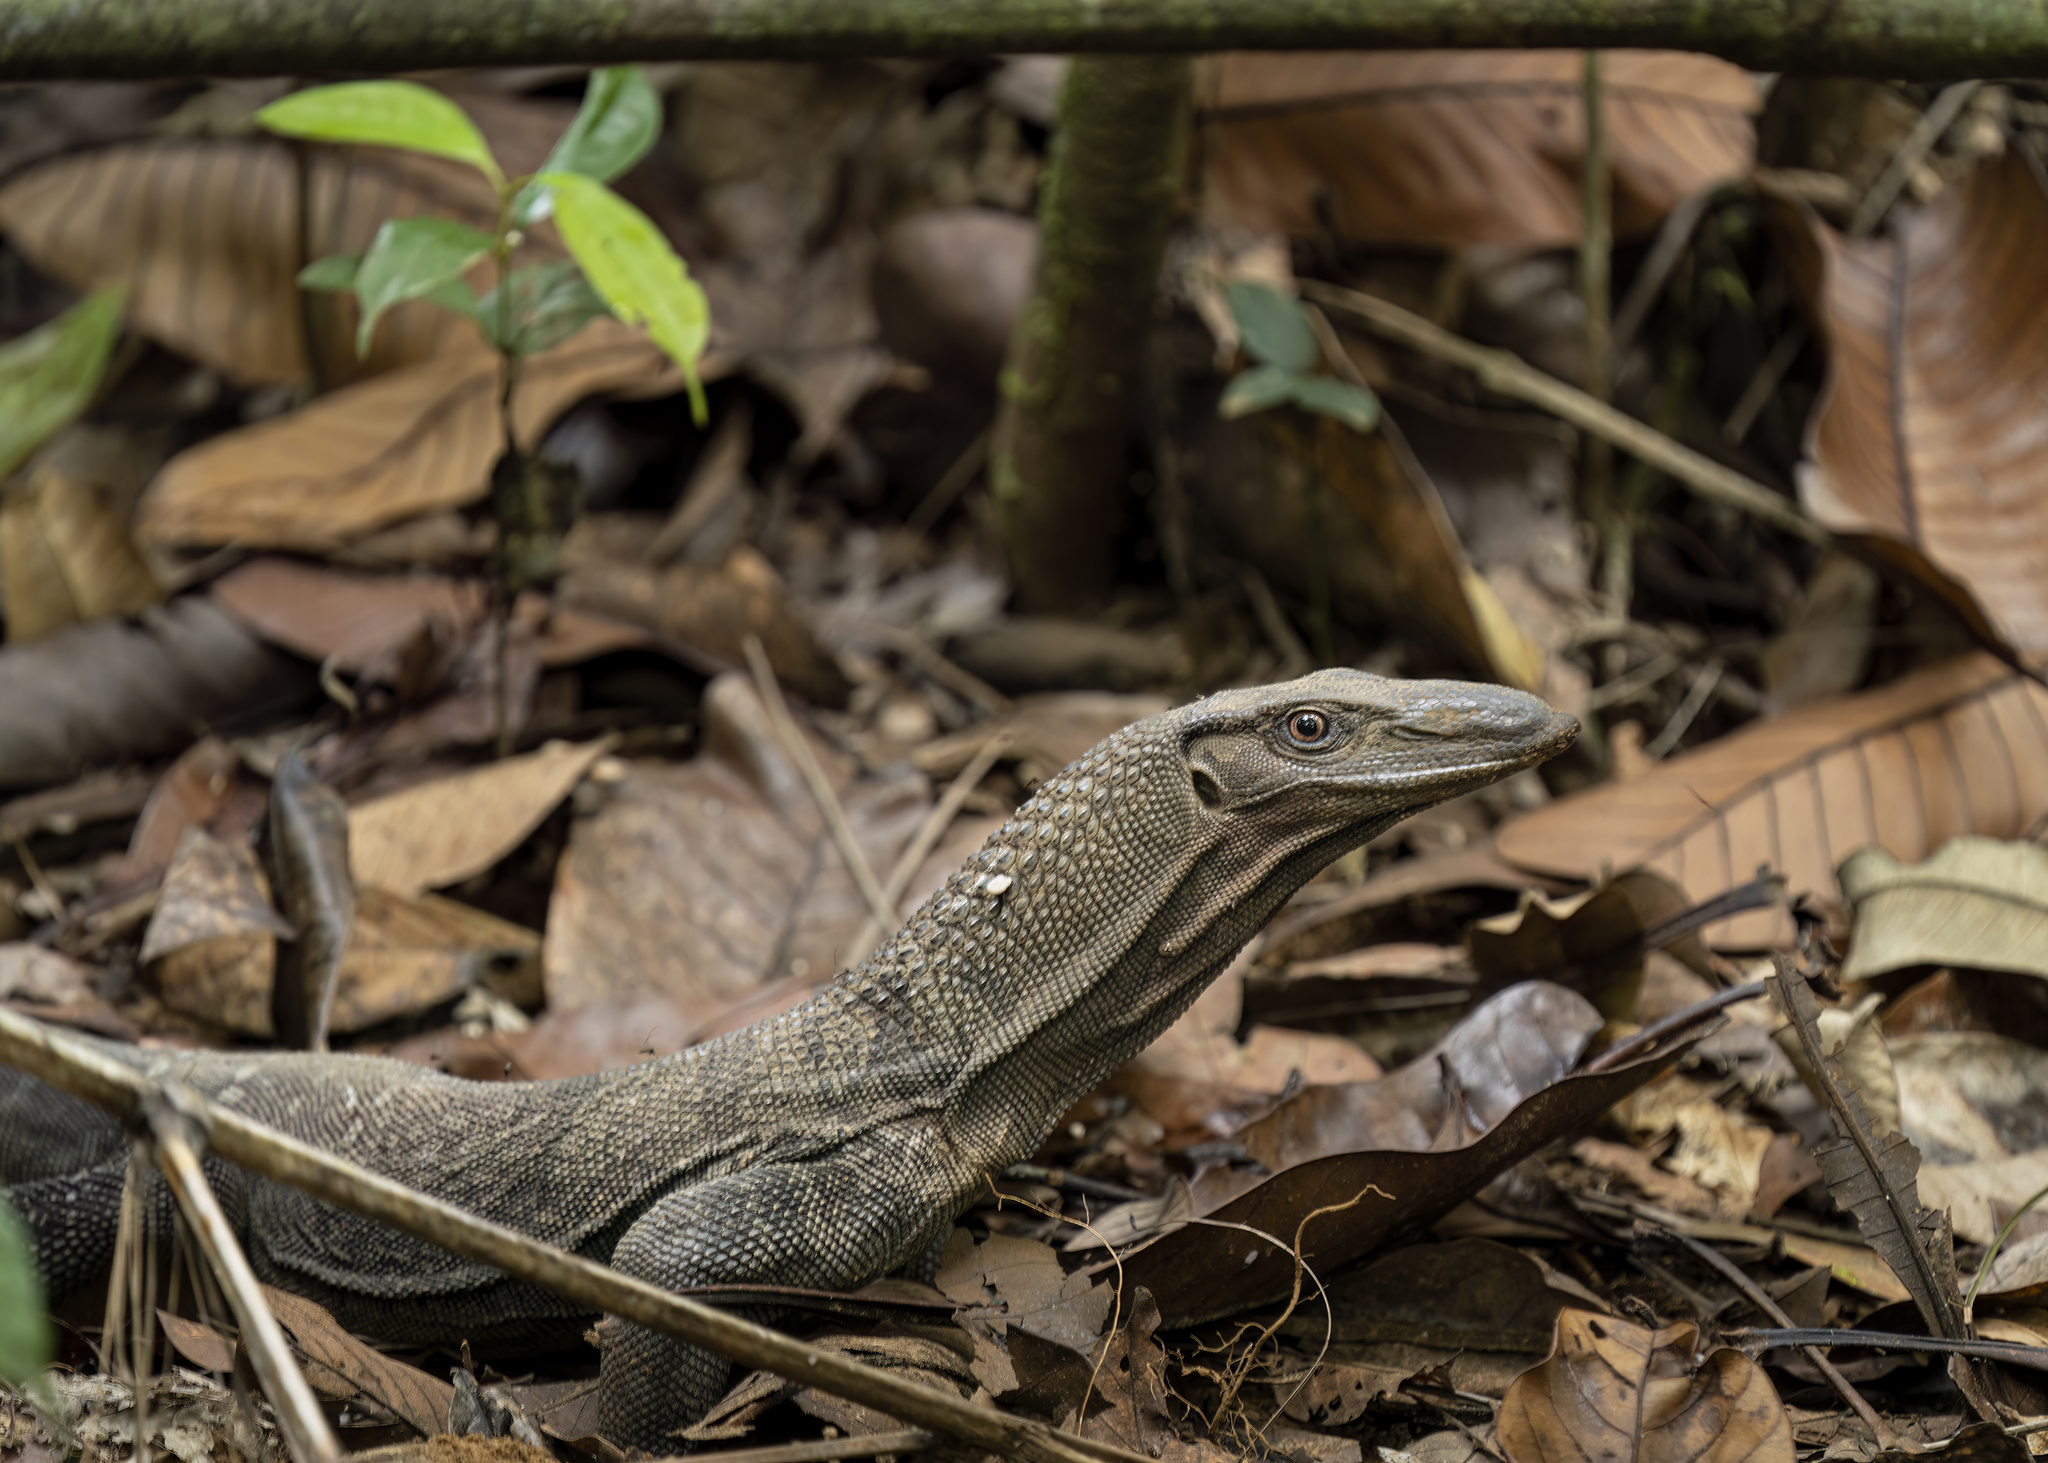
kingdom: Animalia
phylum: Chordata
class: Squamata
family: Varanidae
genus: Varanus
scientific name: Varanus rudicollis
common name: Roughneck monitor
